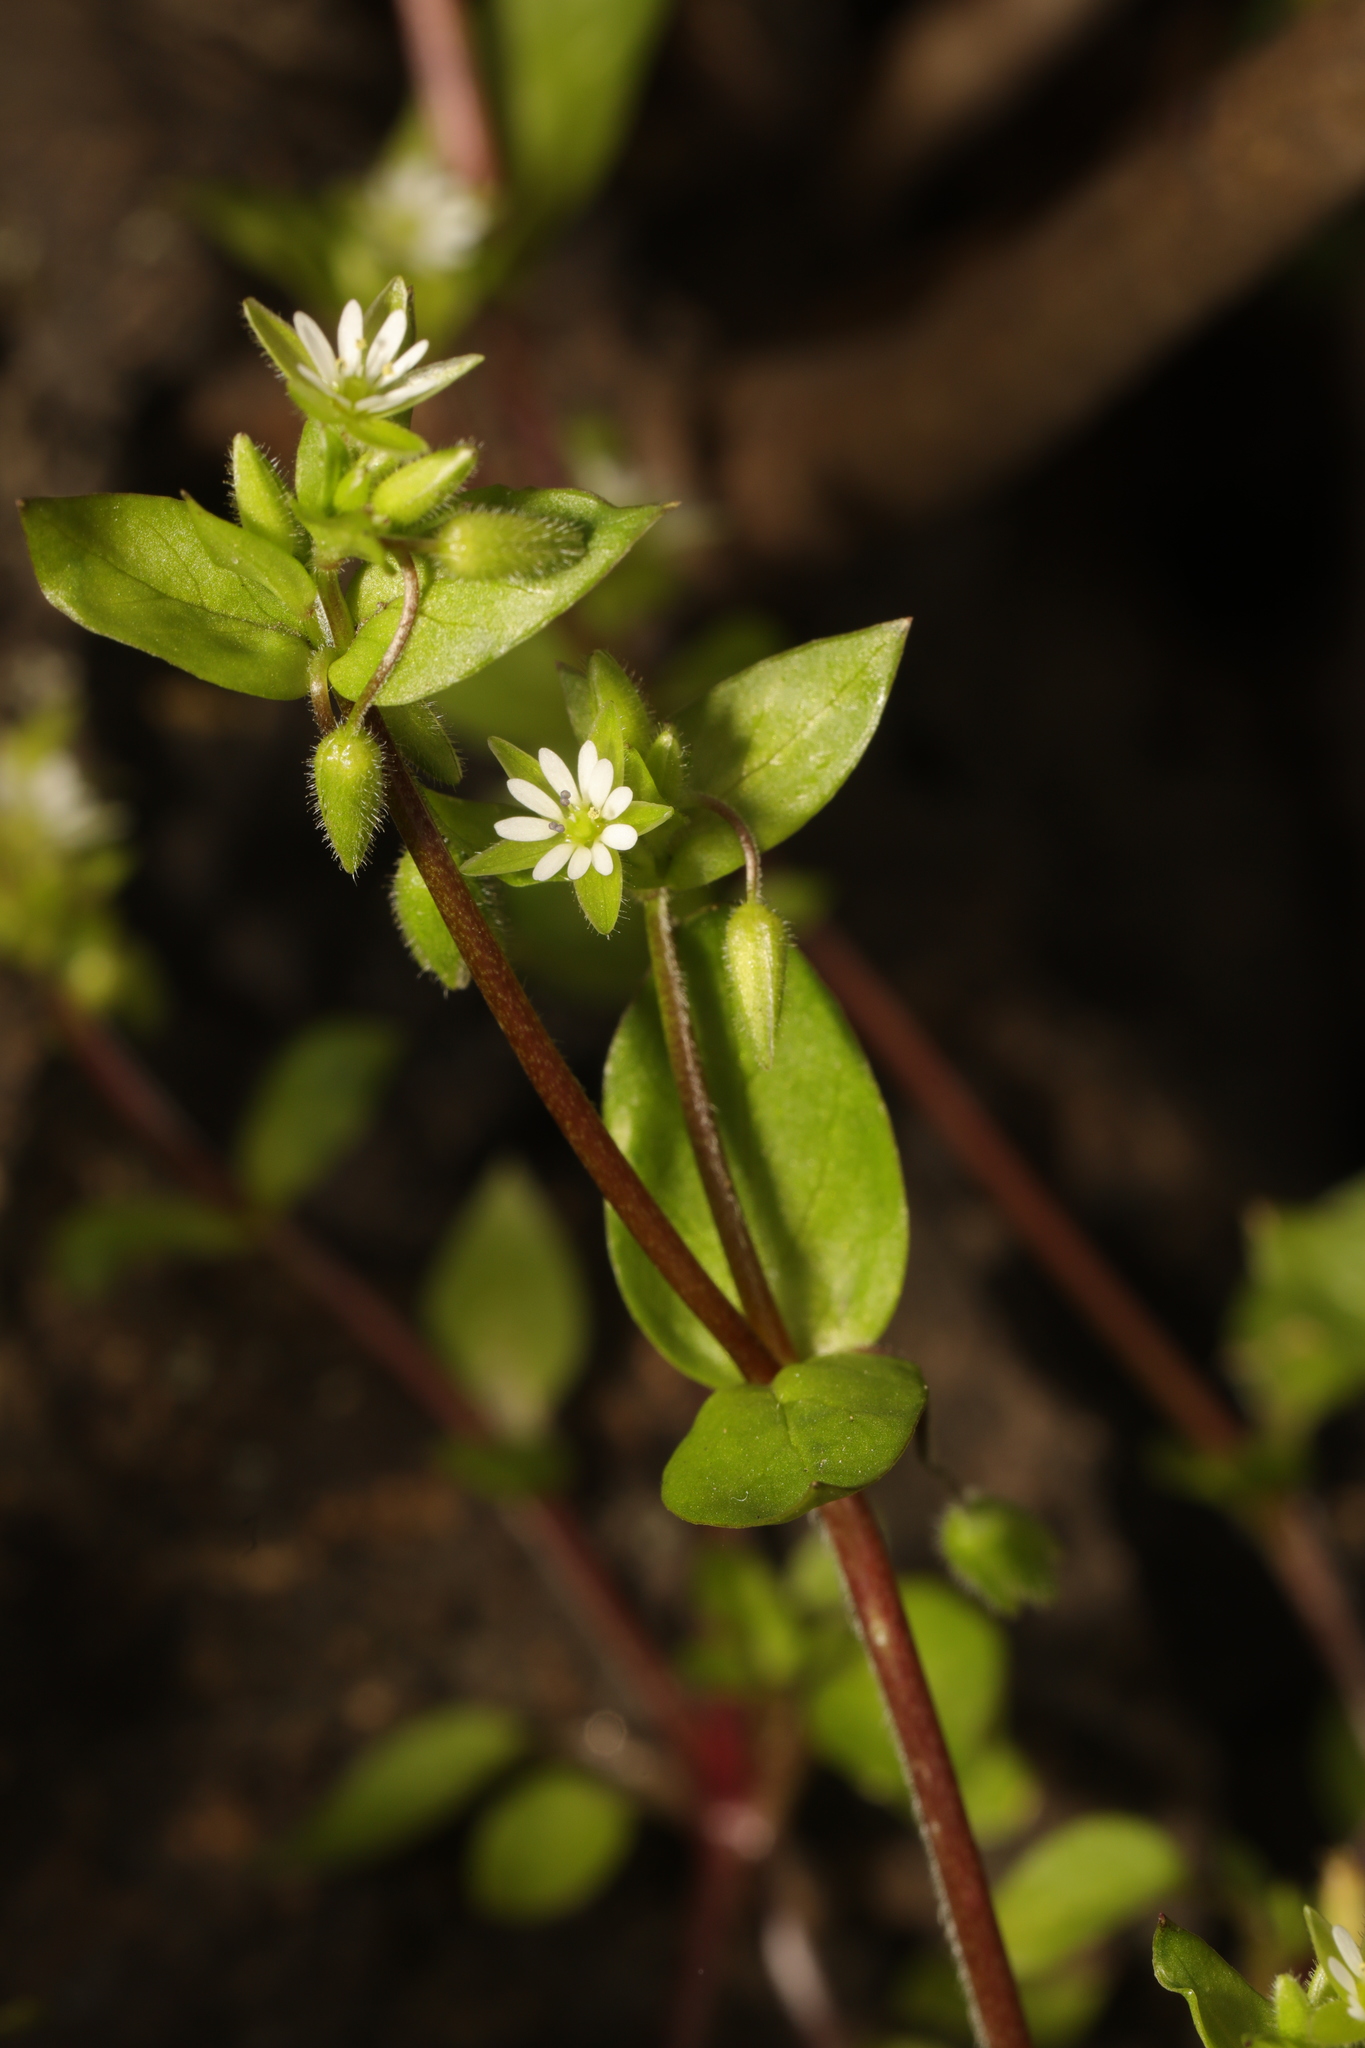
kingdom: Plantae
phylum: Tracheophyta
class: Magnoliopsida
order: Caryophyllales
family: Caryophyllaceae
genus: Stellaria
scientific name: Stellaria media
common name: Common chickweed
